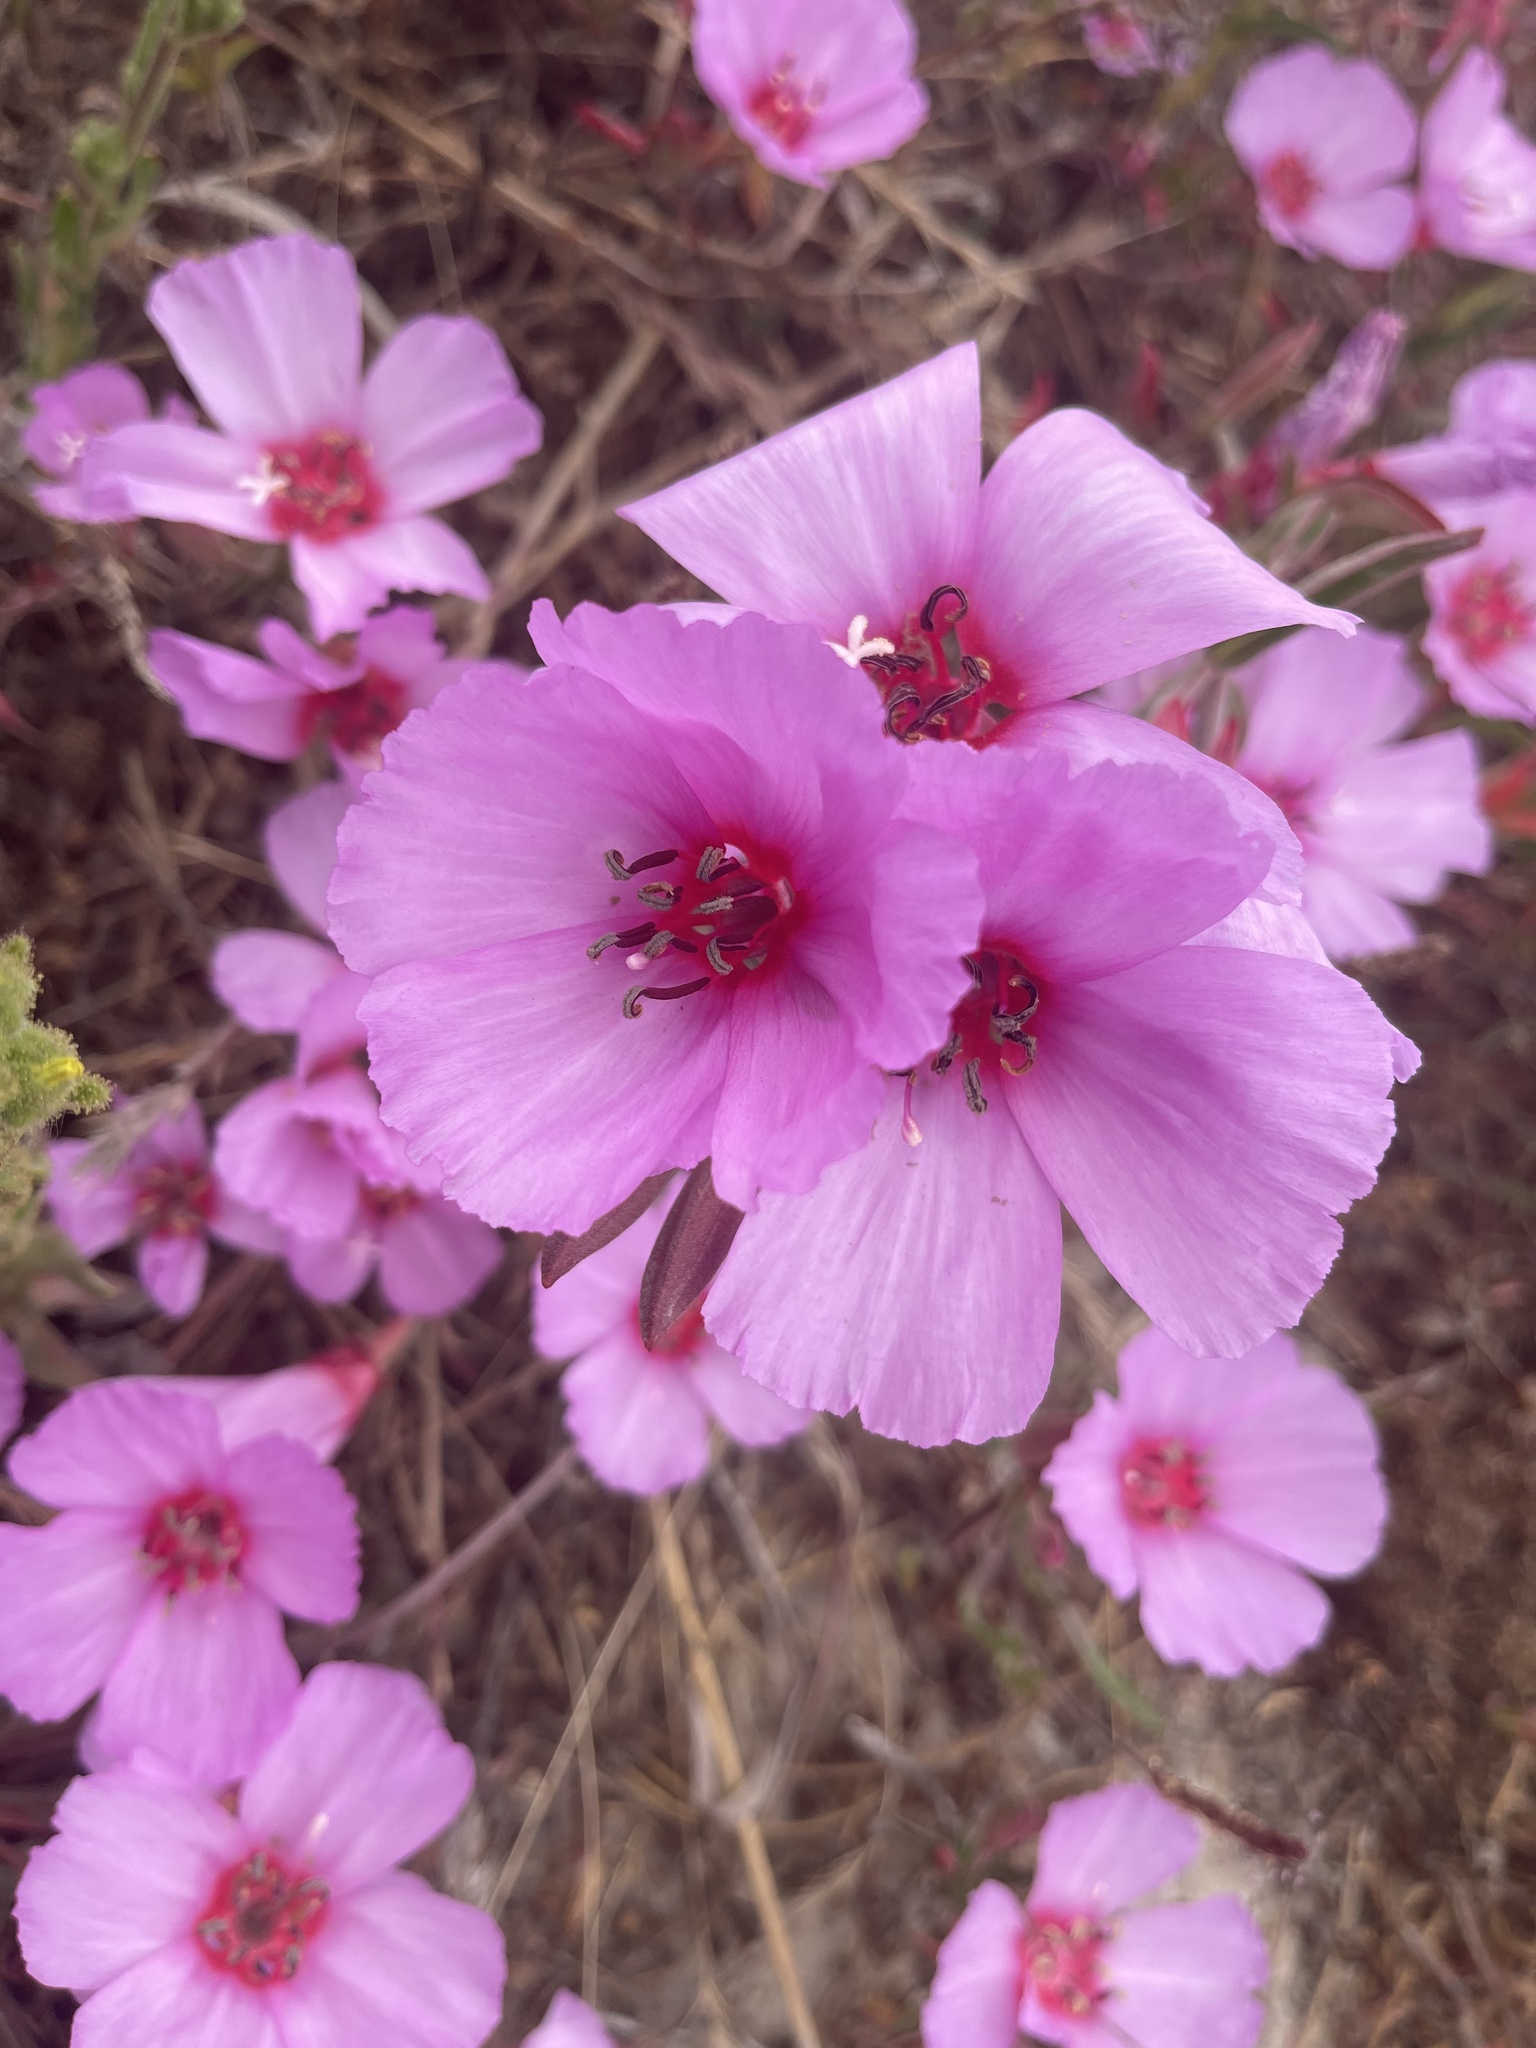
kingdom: Plantae
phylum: Tracheophyta
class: Magnoliopsida
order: Myrtales
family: Onagraceae
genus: Clarkia
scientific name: Clarkia rubicunda
